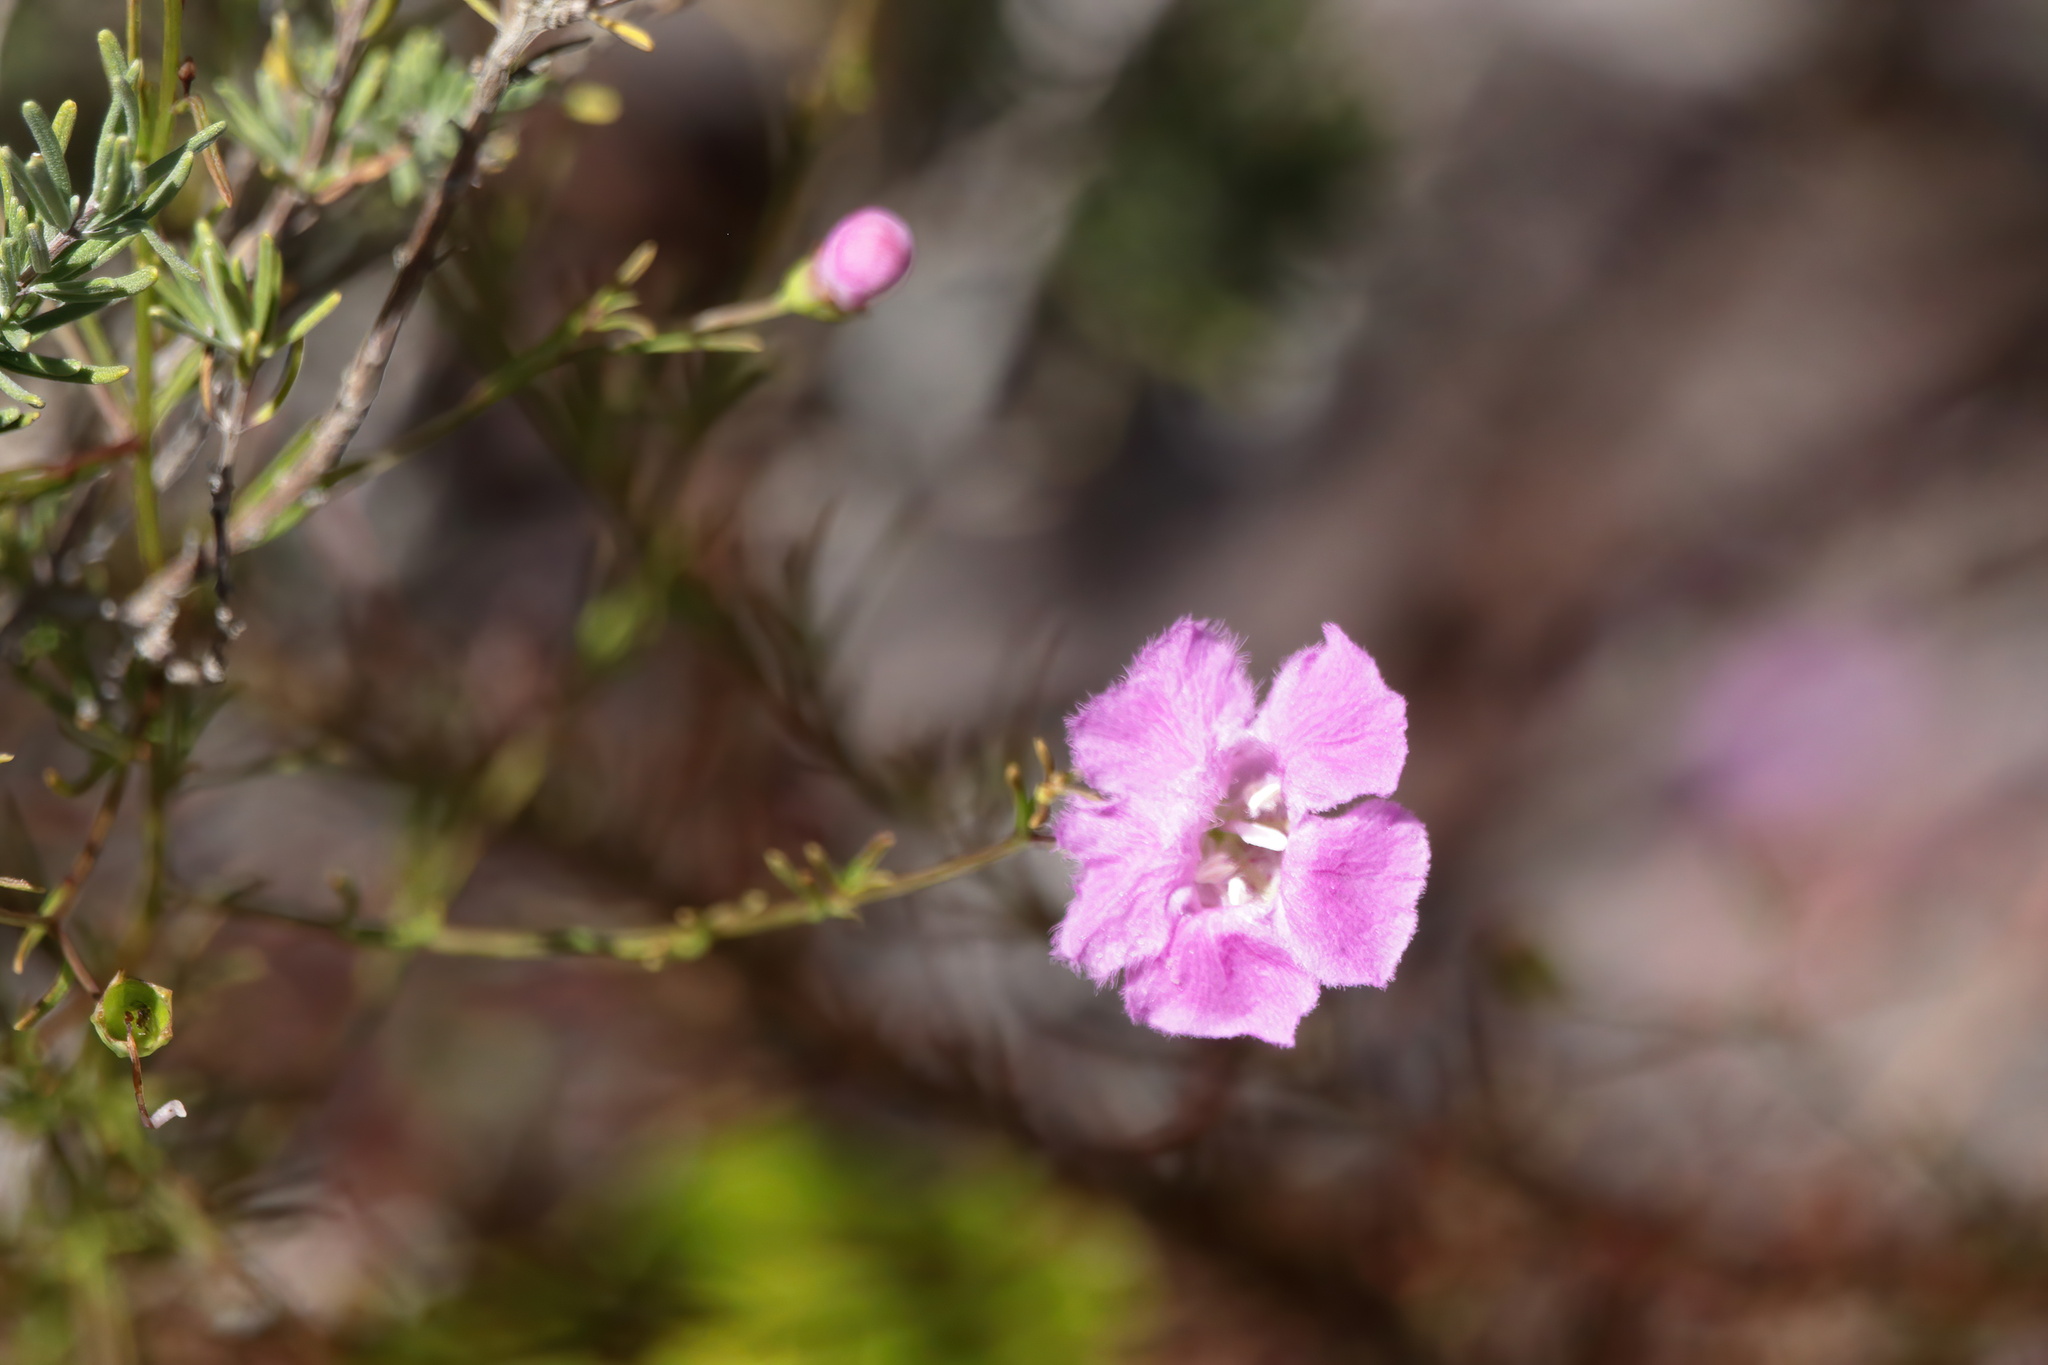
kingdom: Plantae
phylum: Tracheophyta
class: Magnoliopsida
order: Lamiales
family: Orobanchaceae
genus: Agalinis
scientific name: Agalinis filifolia
